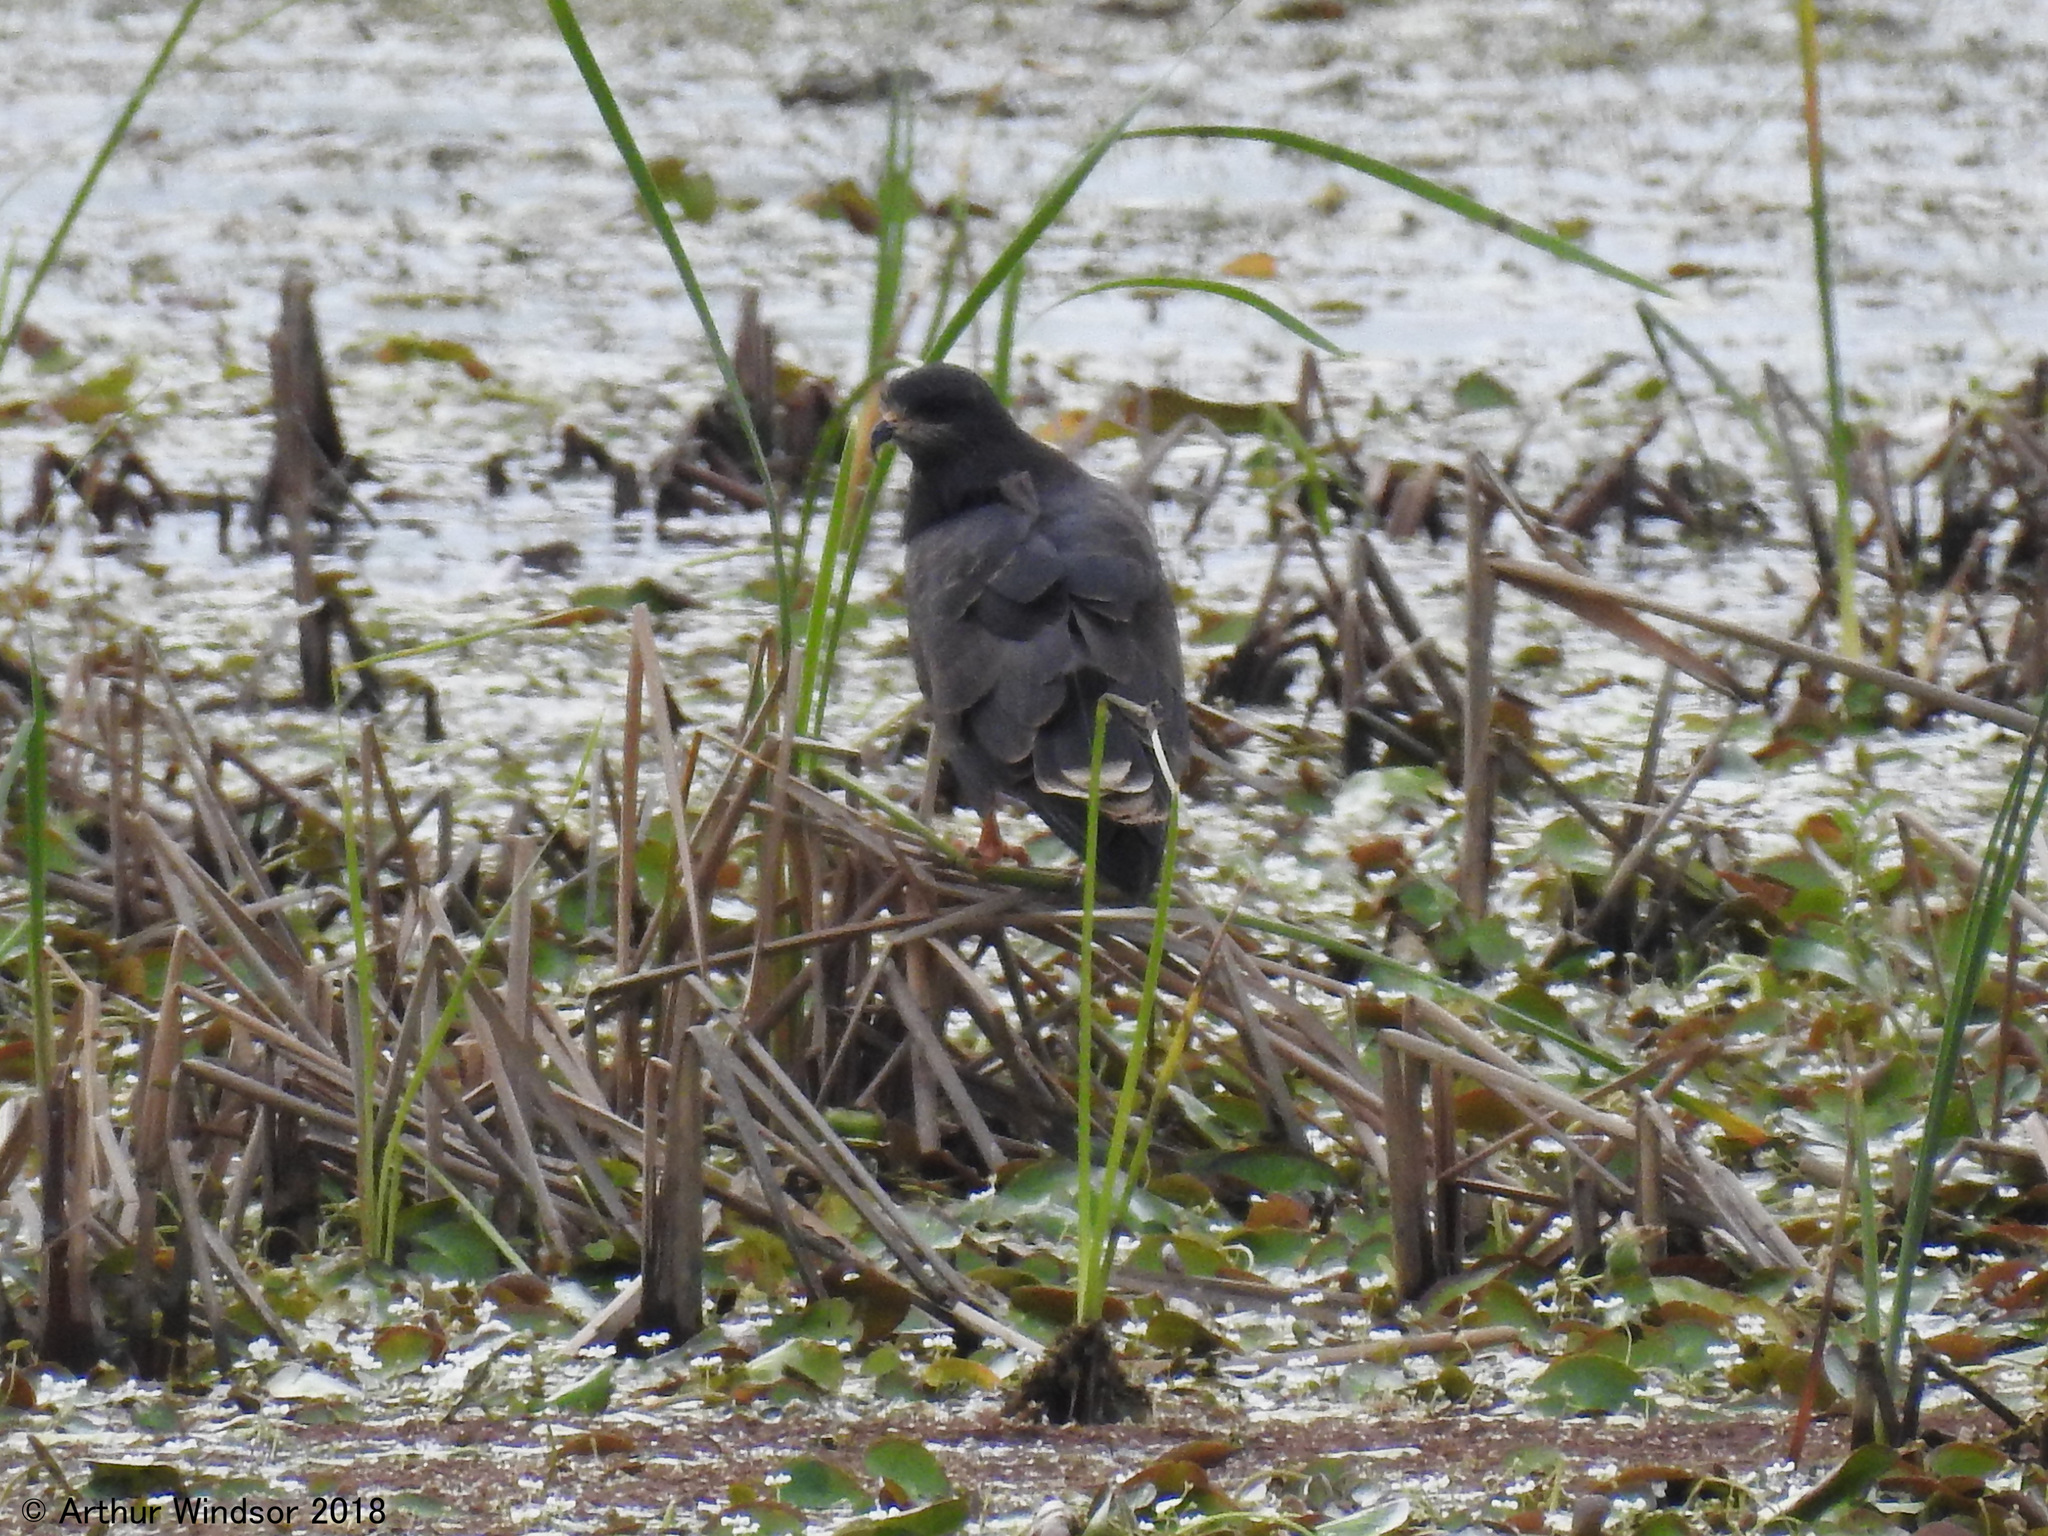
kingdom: Animalia
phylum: Chordata
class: Aves
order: Accipitriformes
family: Accipitridae
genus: Rostrhamus
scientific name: Rostrhamus sociabilis
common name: Snail kite
